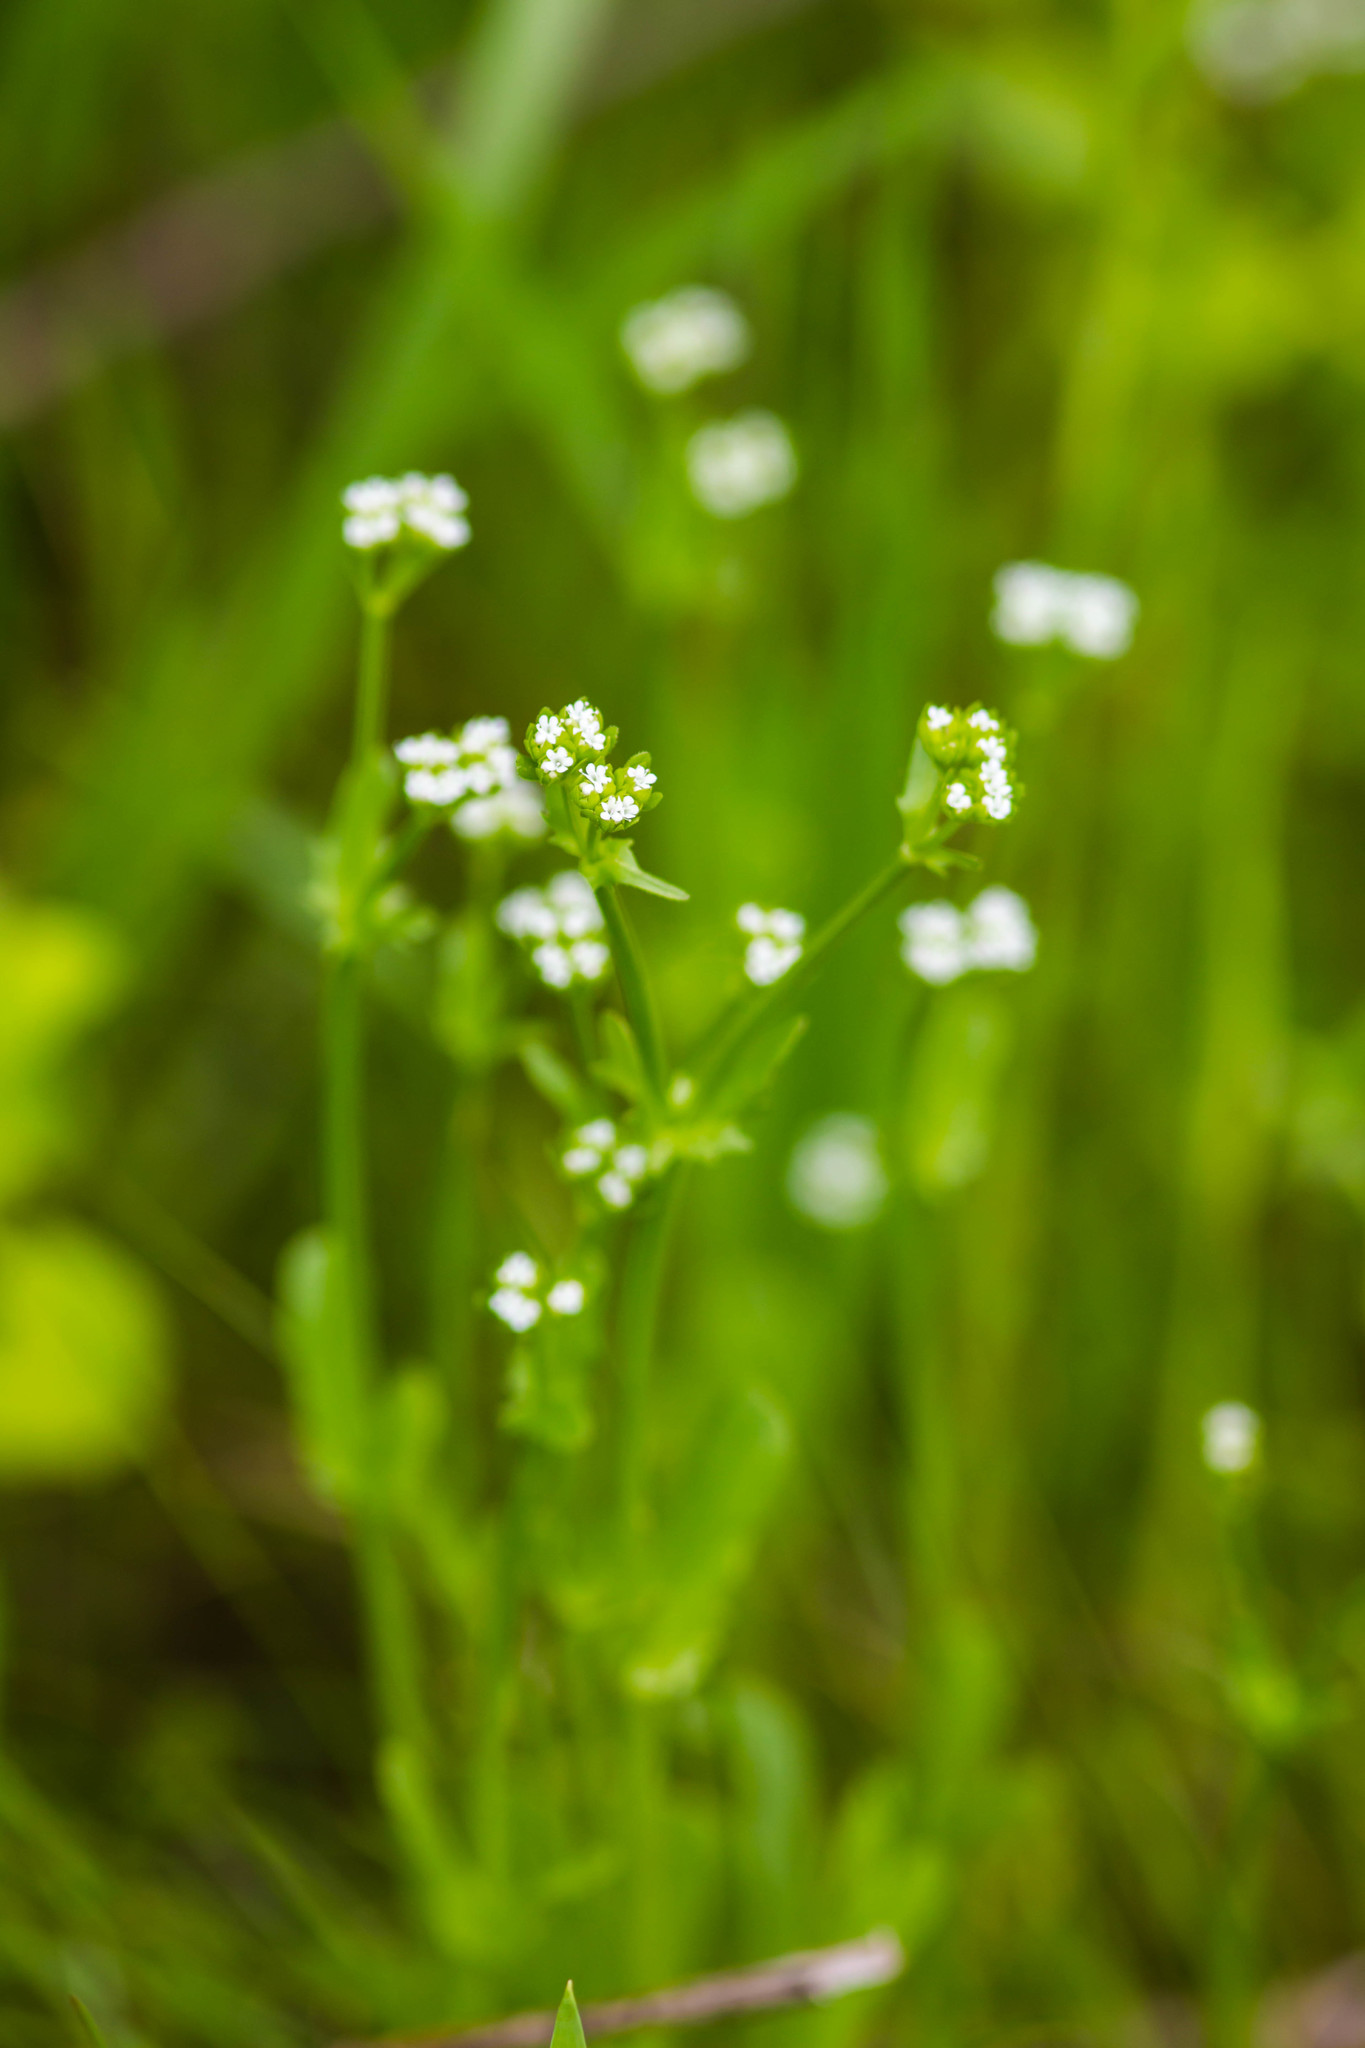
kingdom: Plantae
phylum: Tracheophyta
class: Magnoliopsida
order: Dipsacales
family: Caprifoliaceae
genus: Valerianella
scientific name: Valerianella radiata
